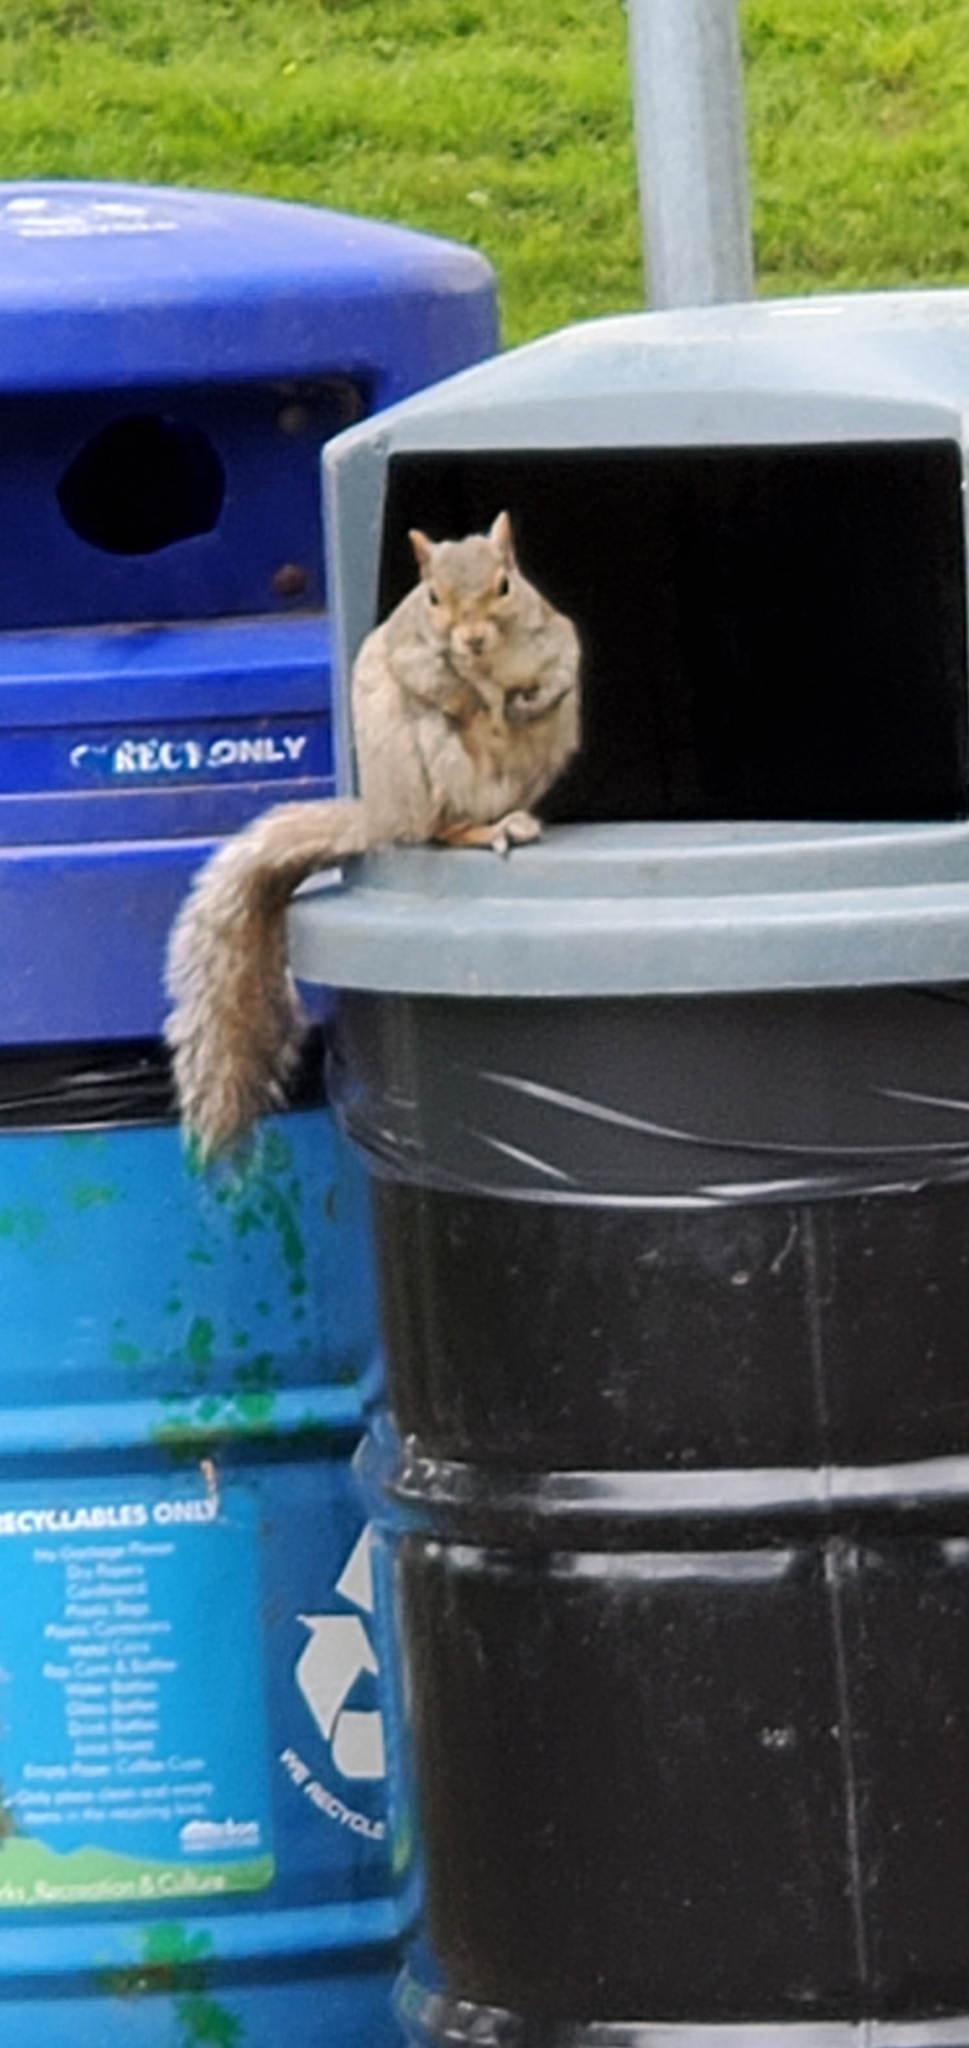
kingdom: Animalia
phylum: Chordata
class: Mammalia
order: Rodentia
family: Sciuridae
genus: Sciurus
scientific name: Sciurus carolinensis
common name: Eastern gray squirrel
